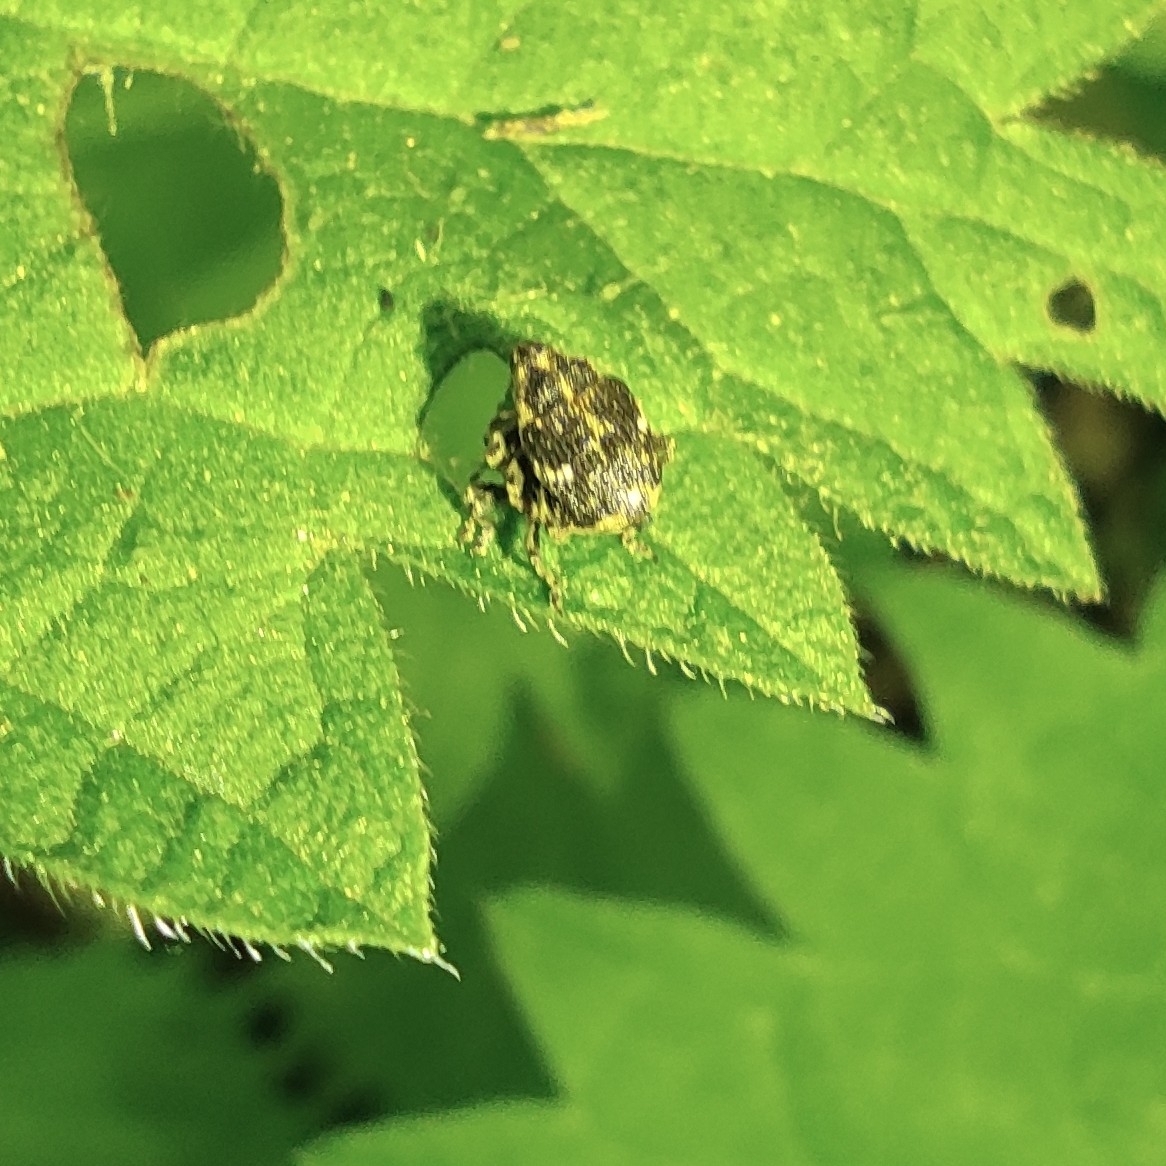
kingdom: Animalia
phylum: Arthropoda
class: Insecta
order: Coleoptera
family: Curculionidae
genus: Nedyus
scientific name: Nedyus quadrimaculatus
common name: Small nettle weevil
